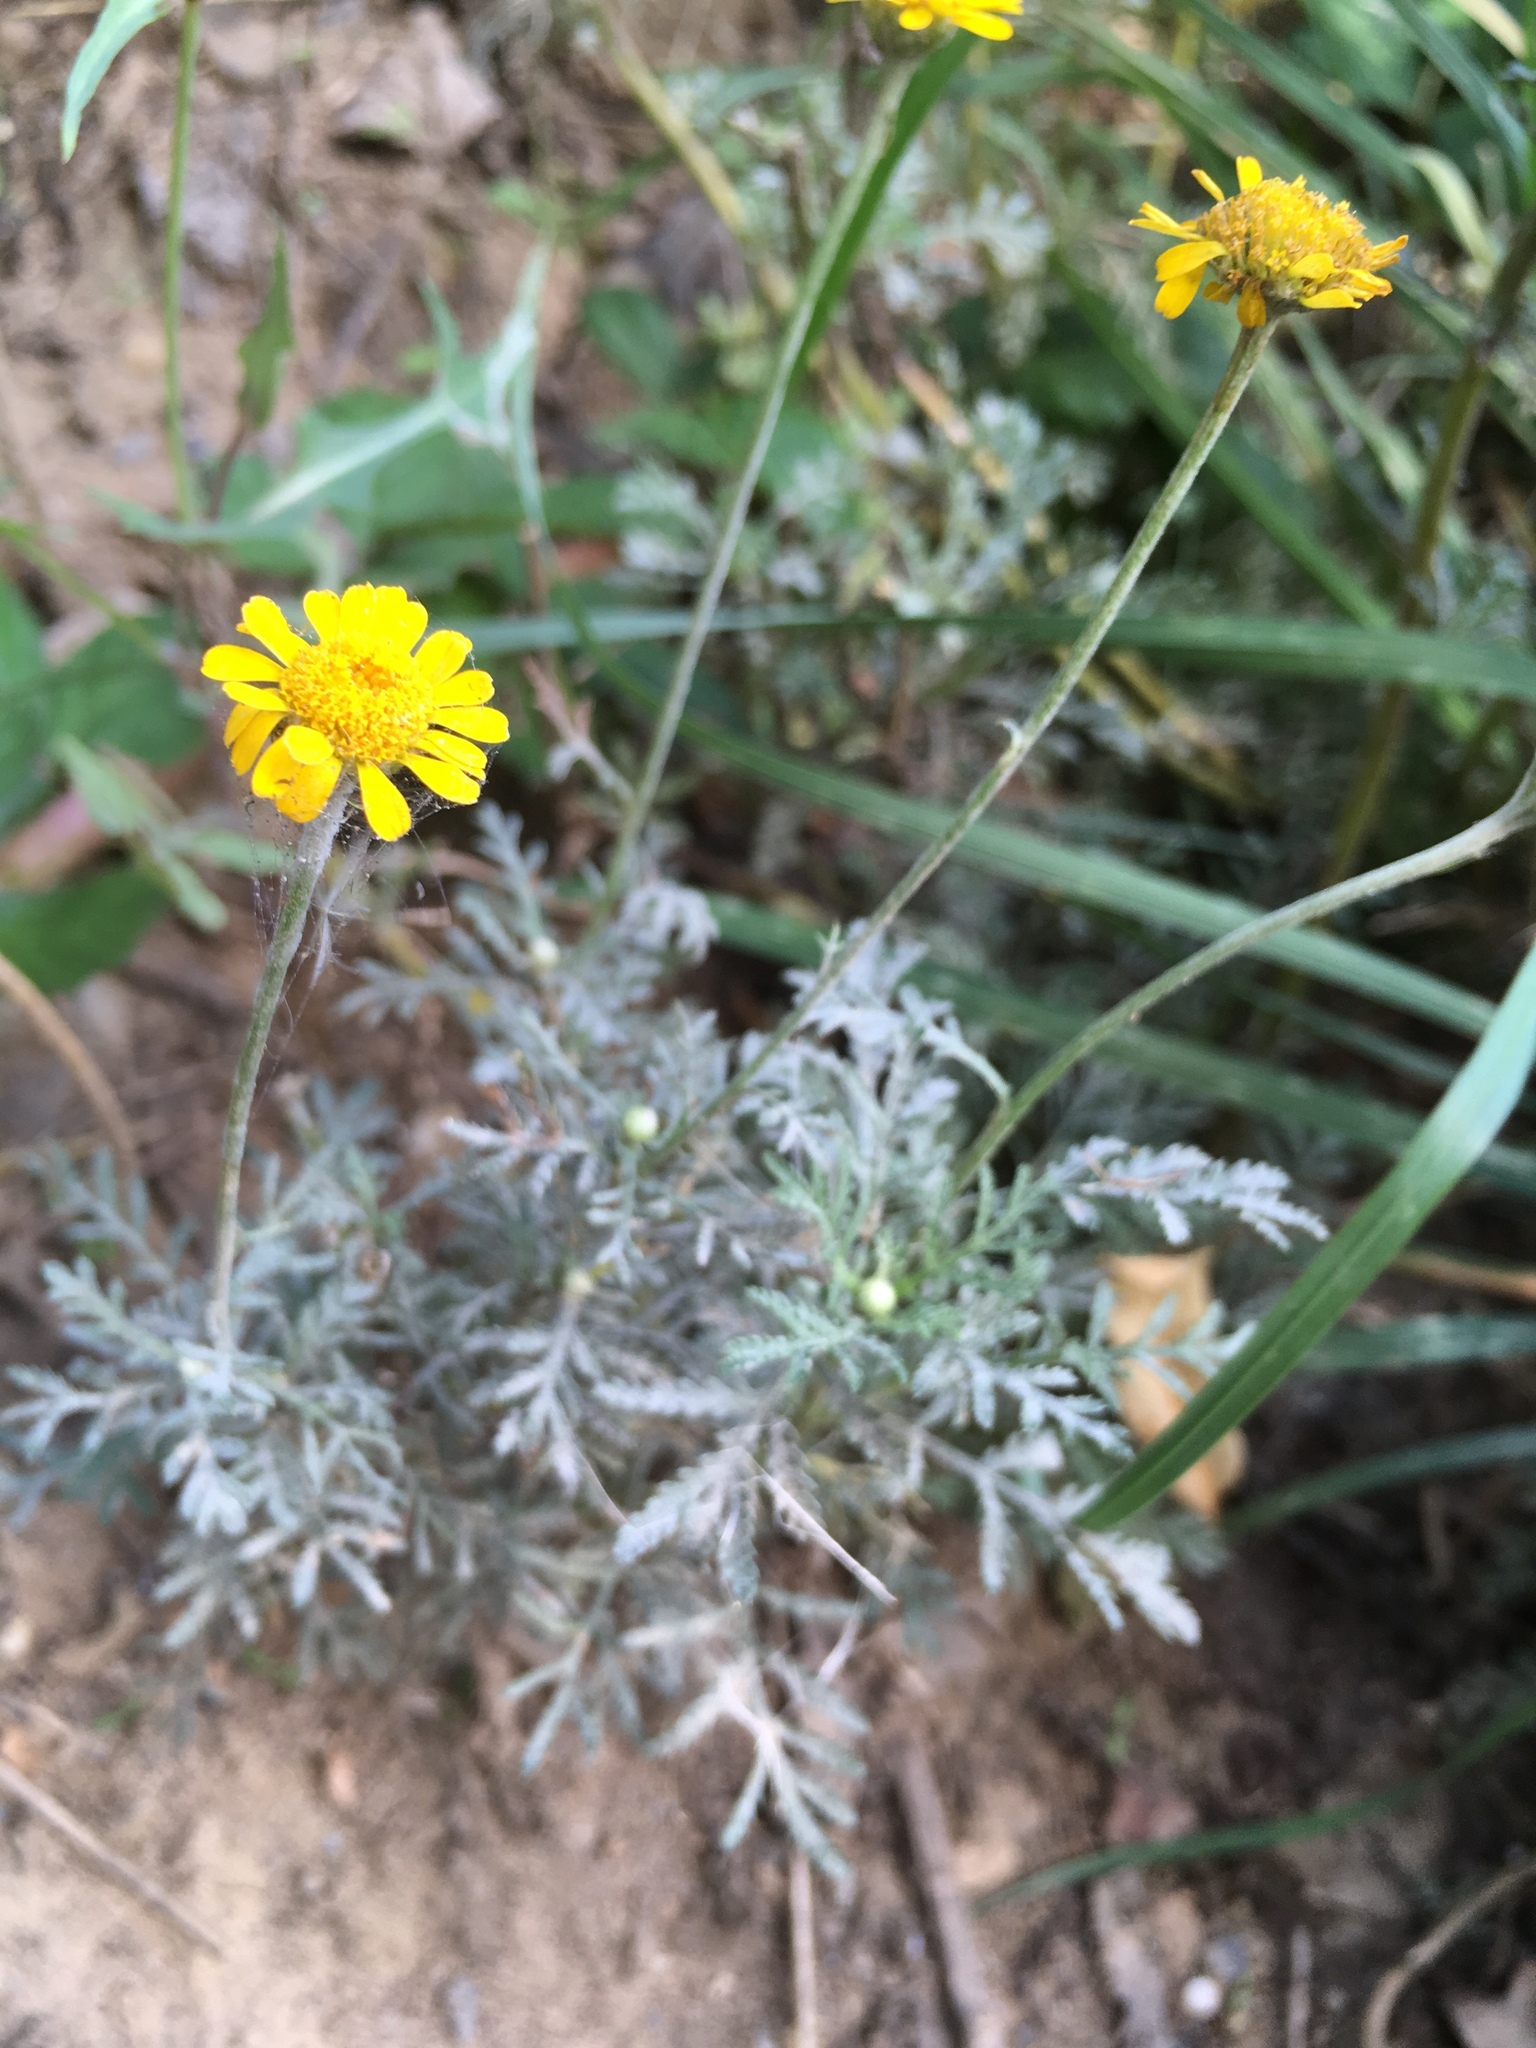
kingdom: Plantae
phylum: Tracheophyta
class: Magnoliopsida
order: Asterales
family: Asteraceae
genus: Cota
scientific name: Cota tinctoria
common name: Golden chamomile
